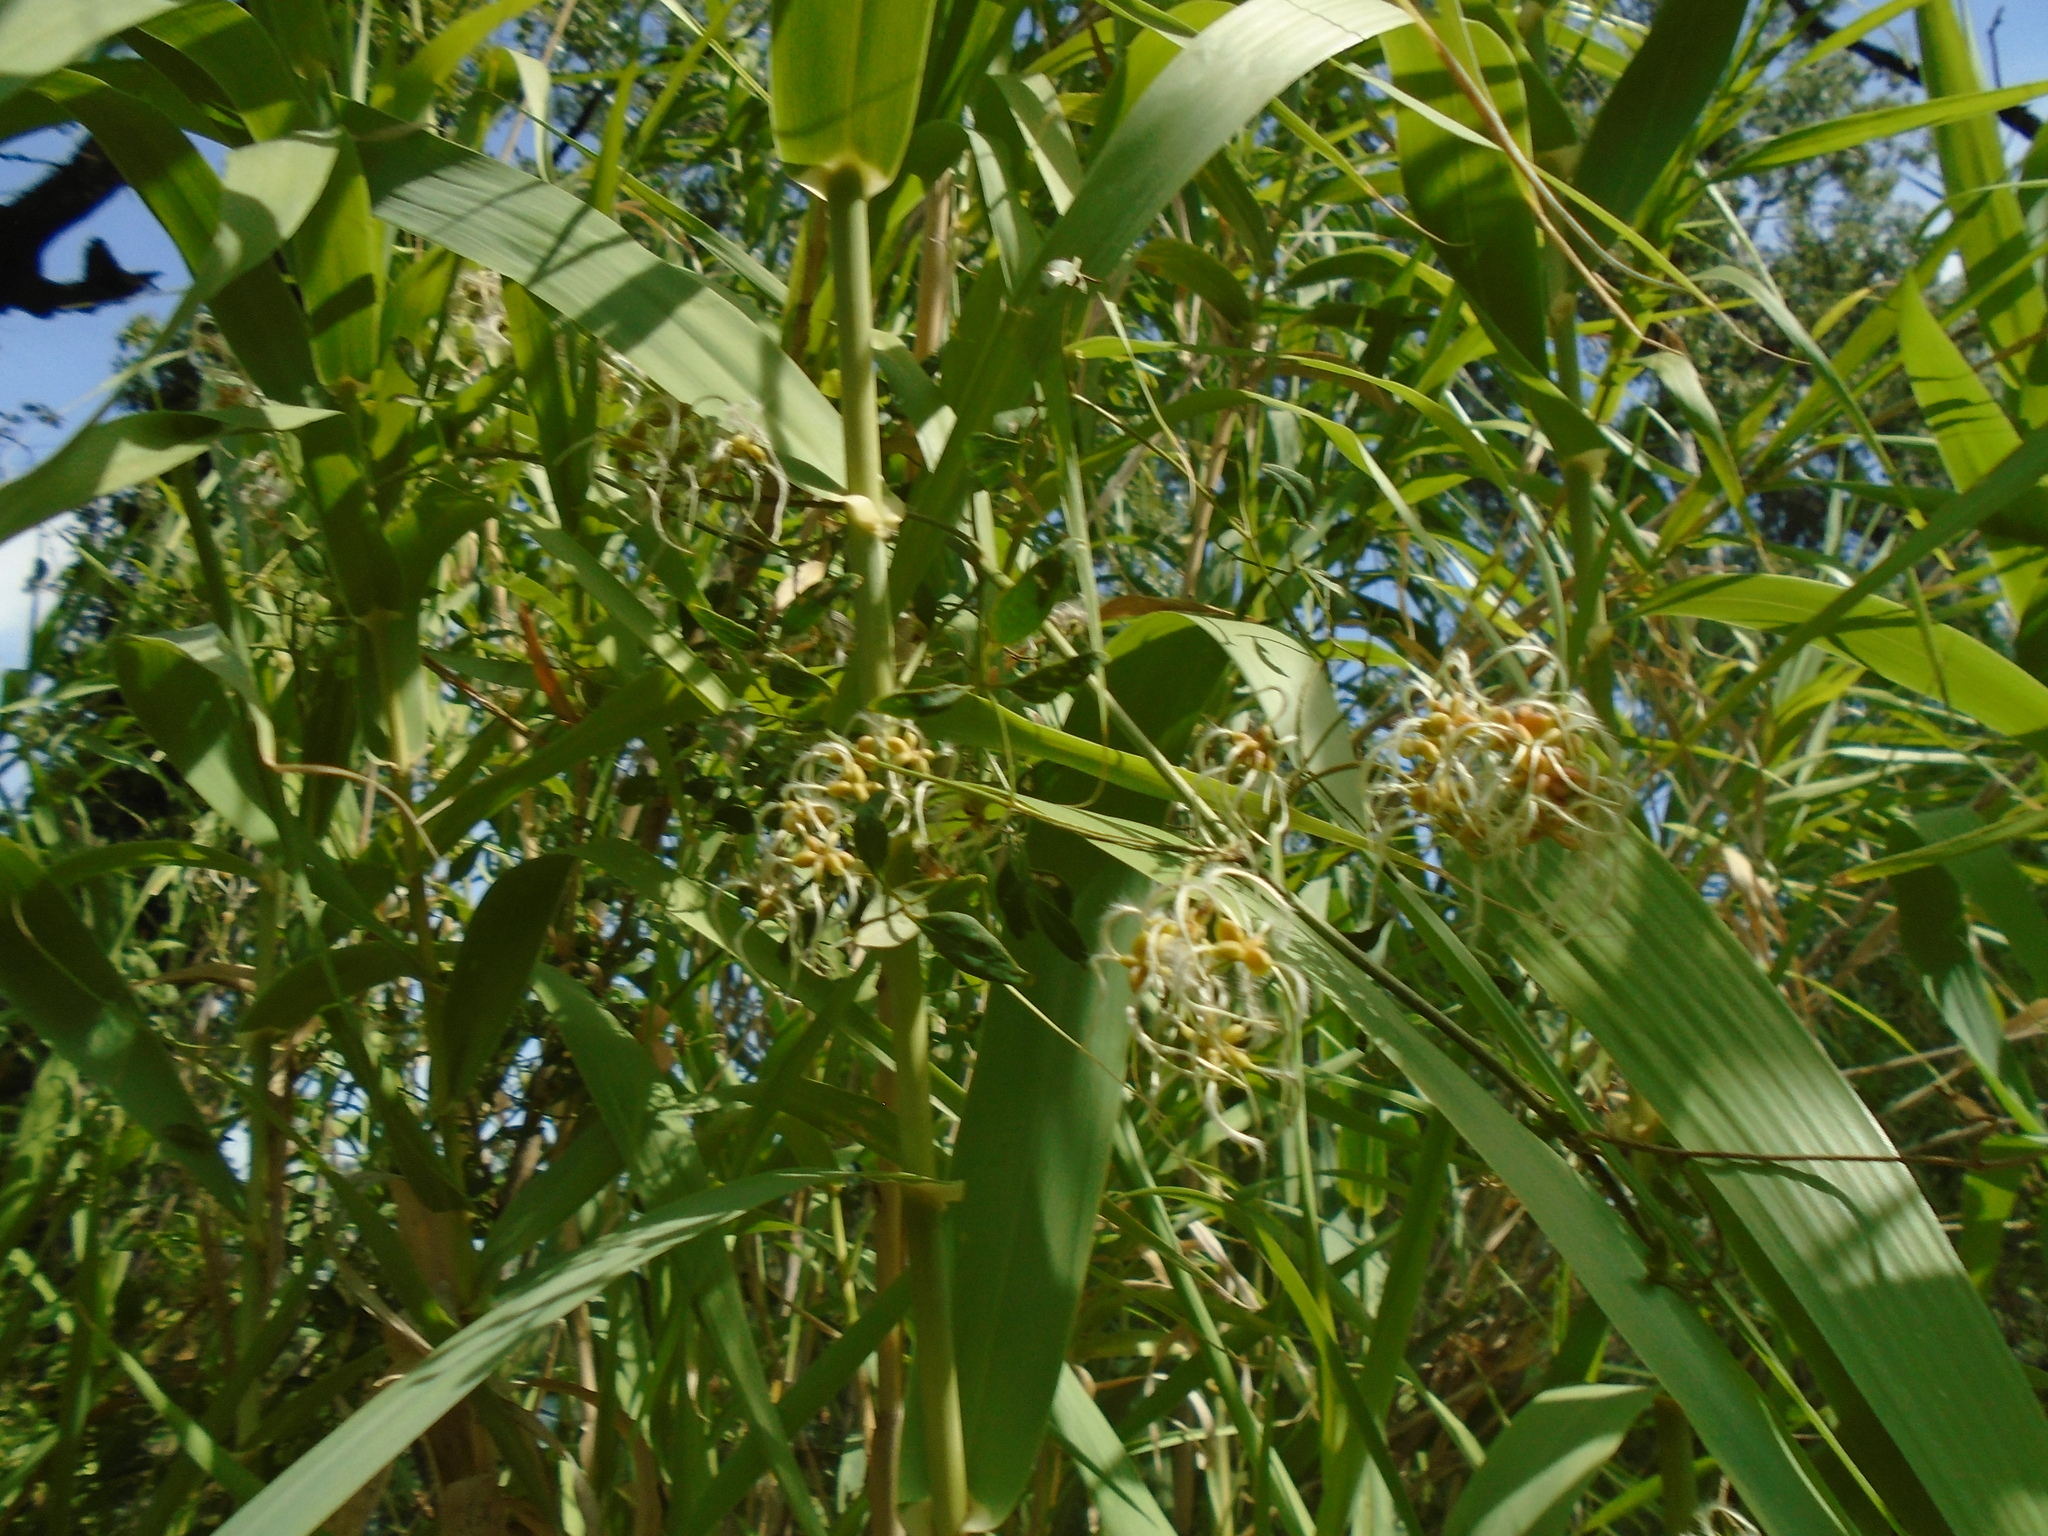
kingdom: Plantae
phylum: Tracheophyta
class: Magnoliopsida
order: Ranunculales
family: Ranunculaceae
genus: Clematis
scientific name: Clematis flammula
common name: Virgin's-bower
